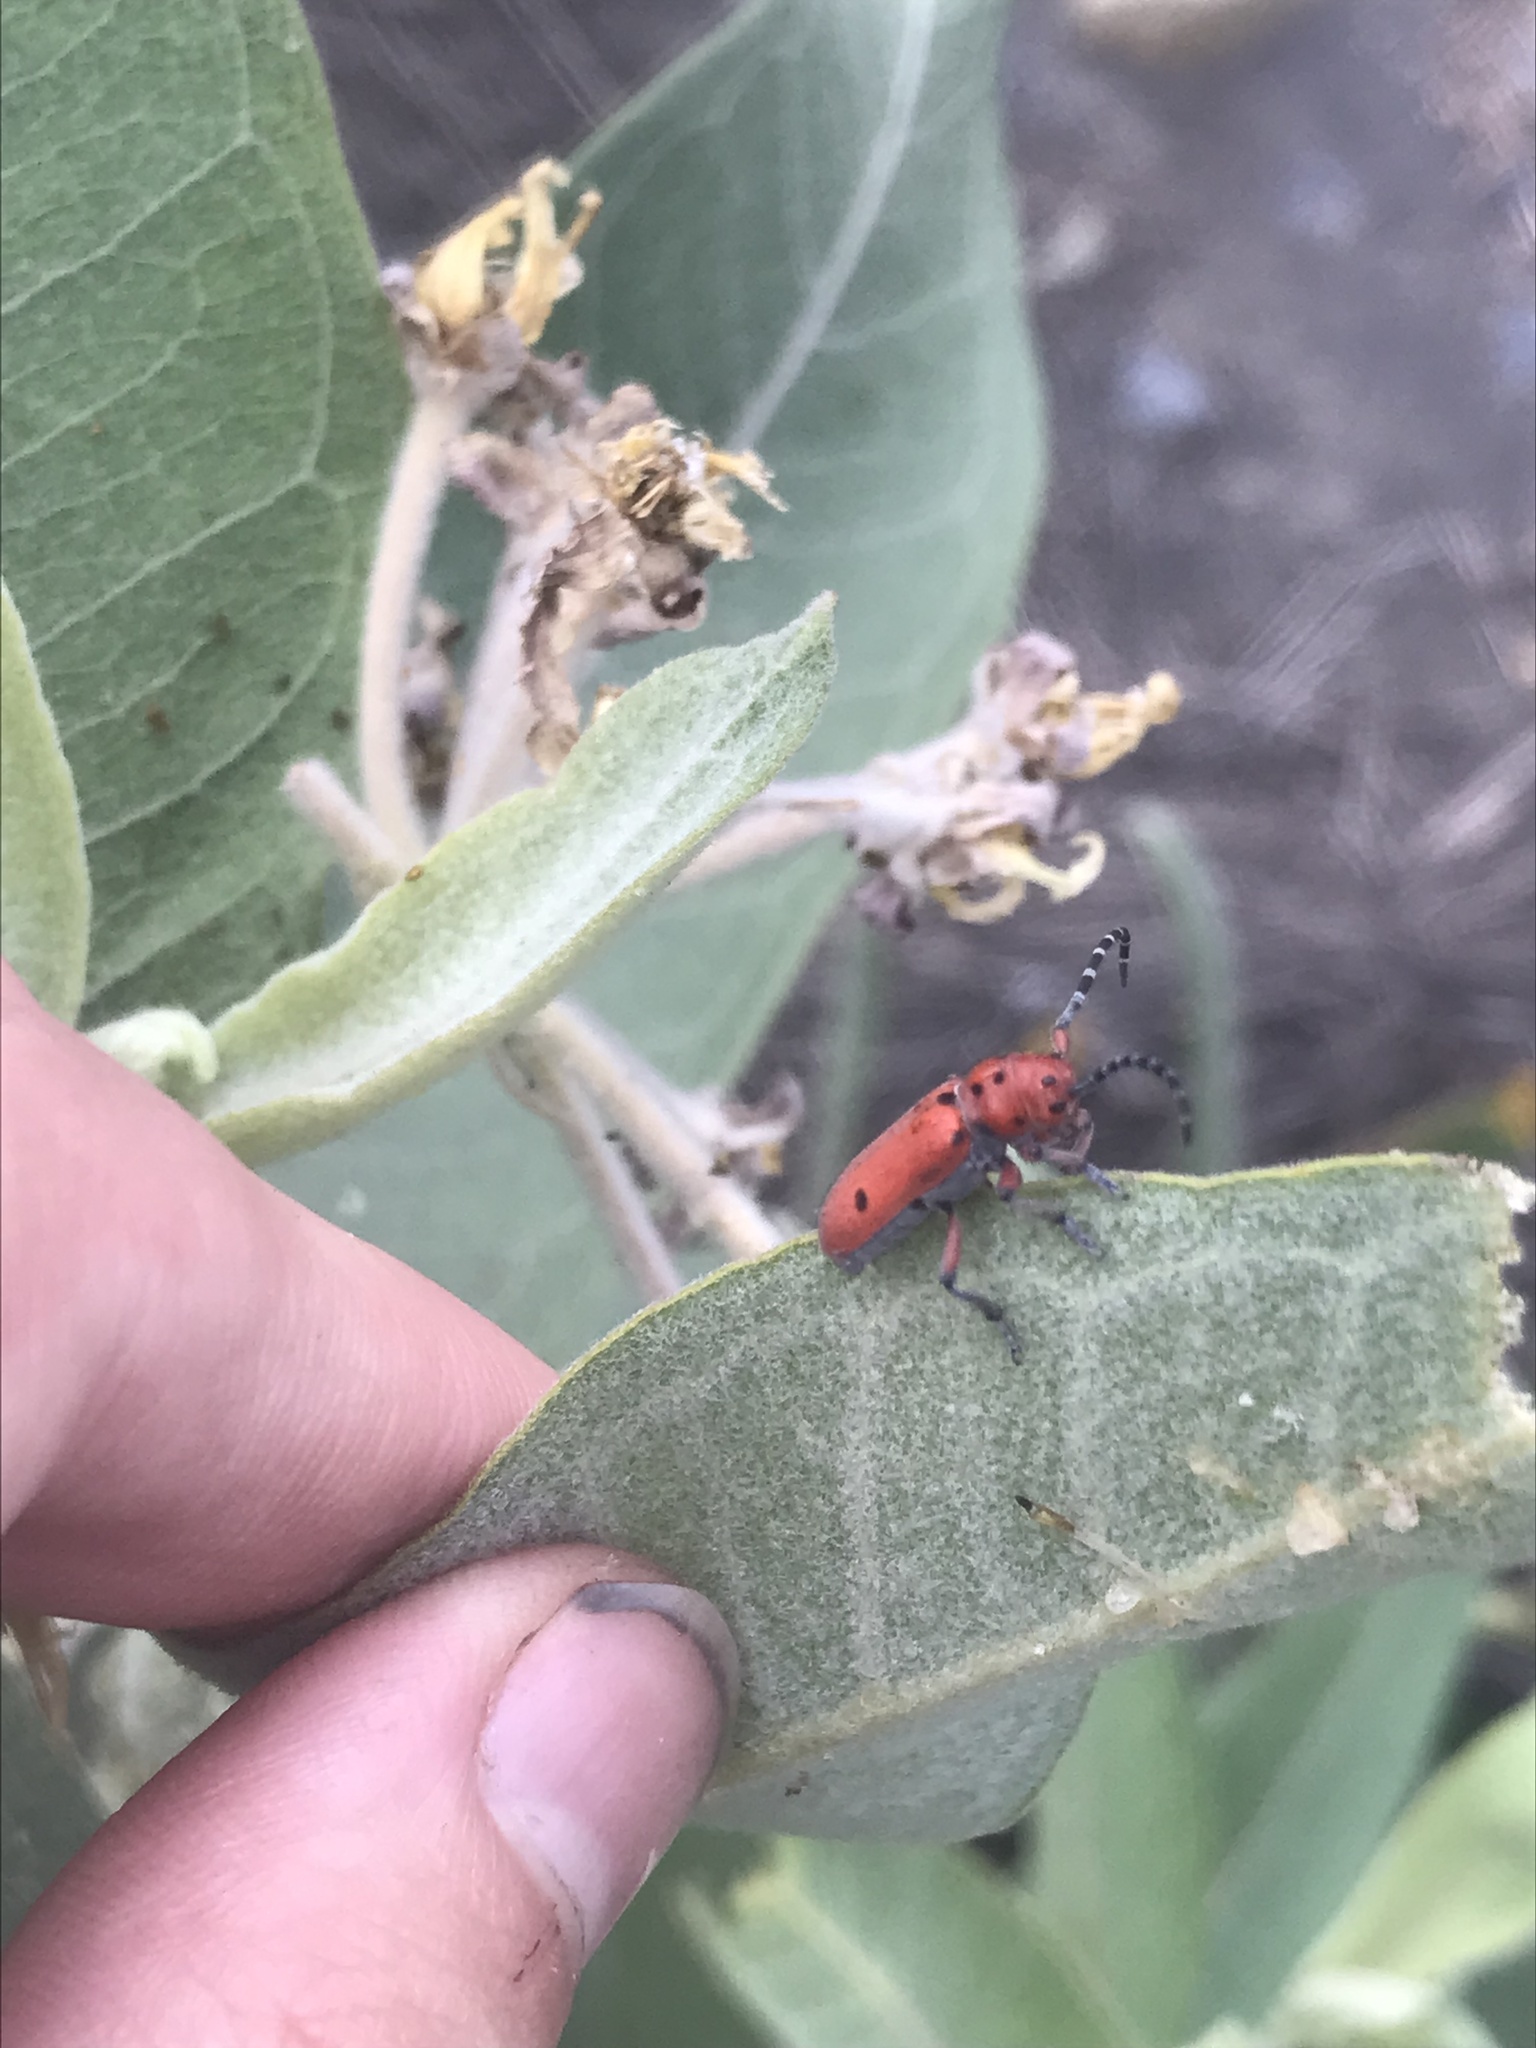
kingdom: Animalia
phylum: Arthropoda
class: Insecta
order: Coleoptera
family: Cerambycidae
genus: Tetraopes
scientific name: Tetraopes femoratus
